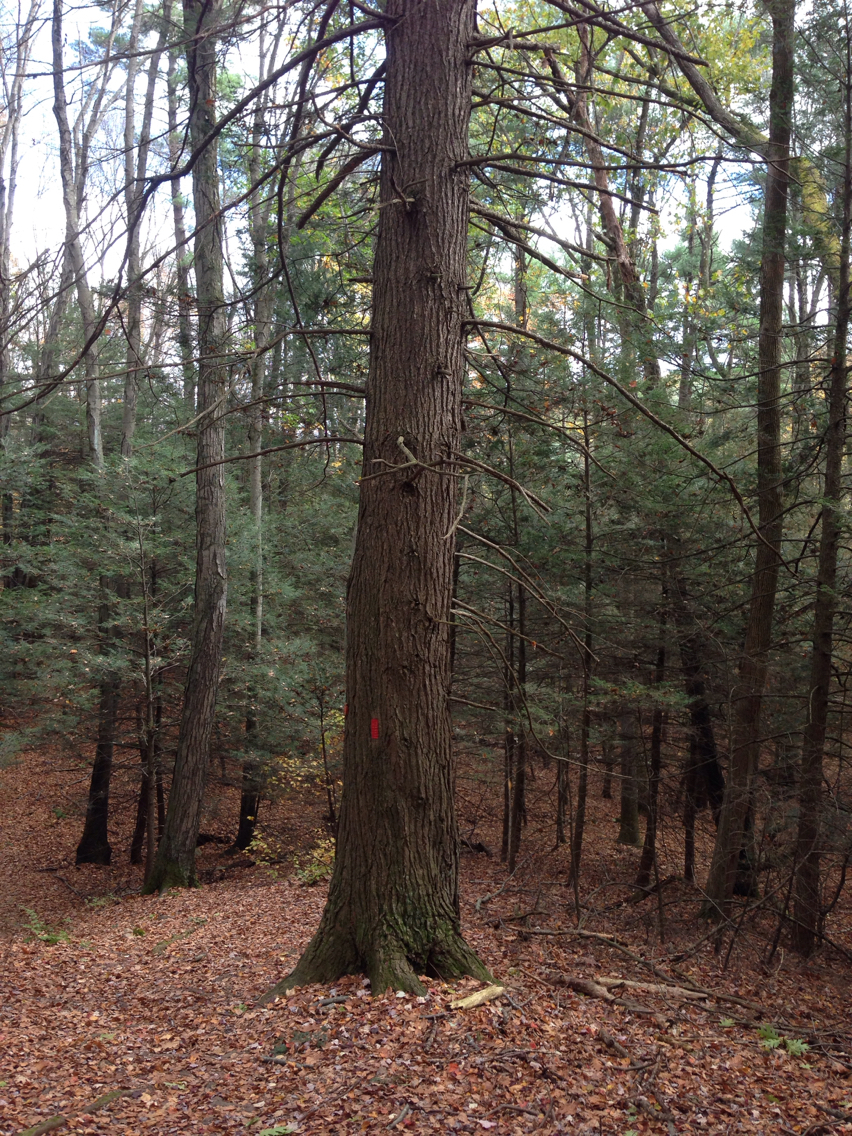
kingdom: Plantae
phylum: Tracheophyta
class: Pinopsida
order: Pinales
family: Pinaceae
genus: Tsuga
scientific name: Tsuga canadensis
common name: Eastern hemlock
